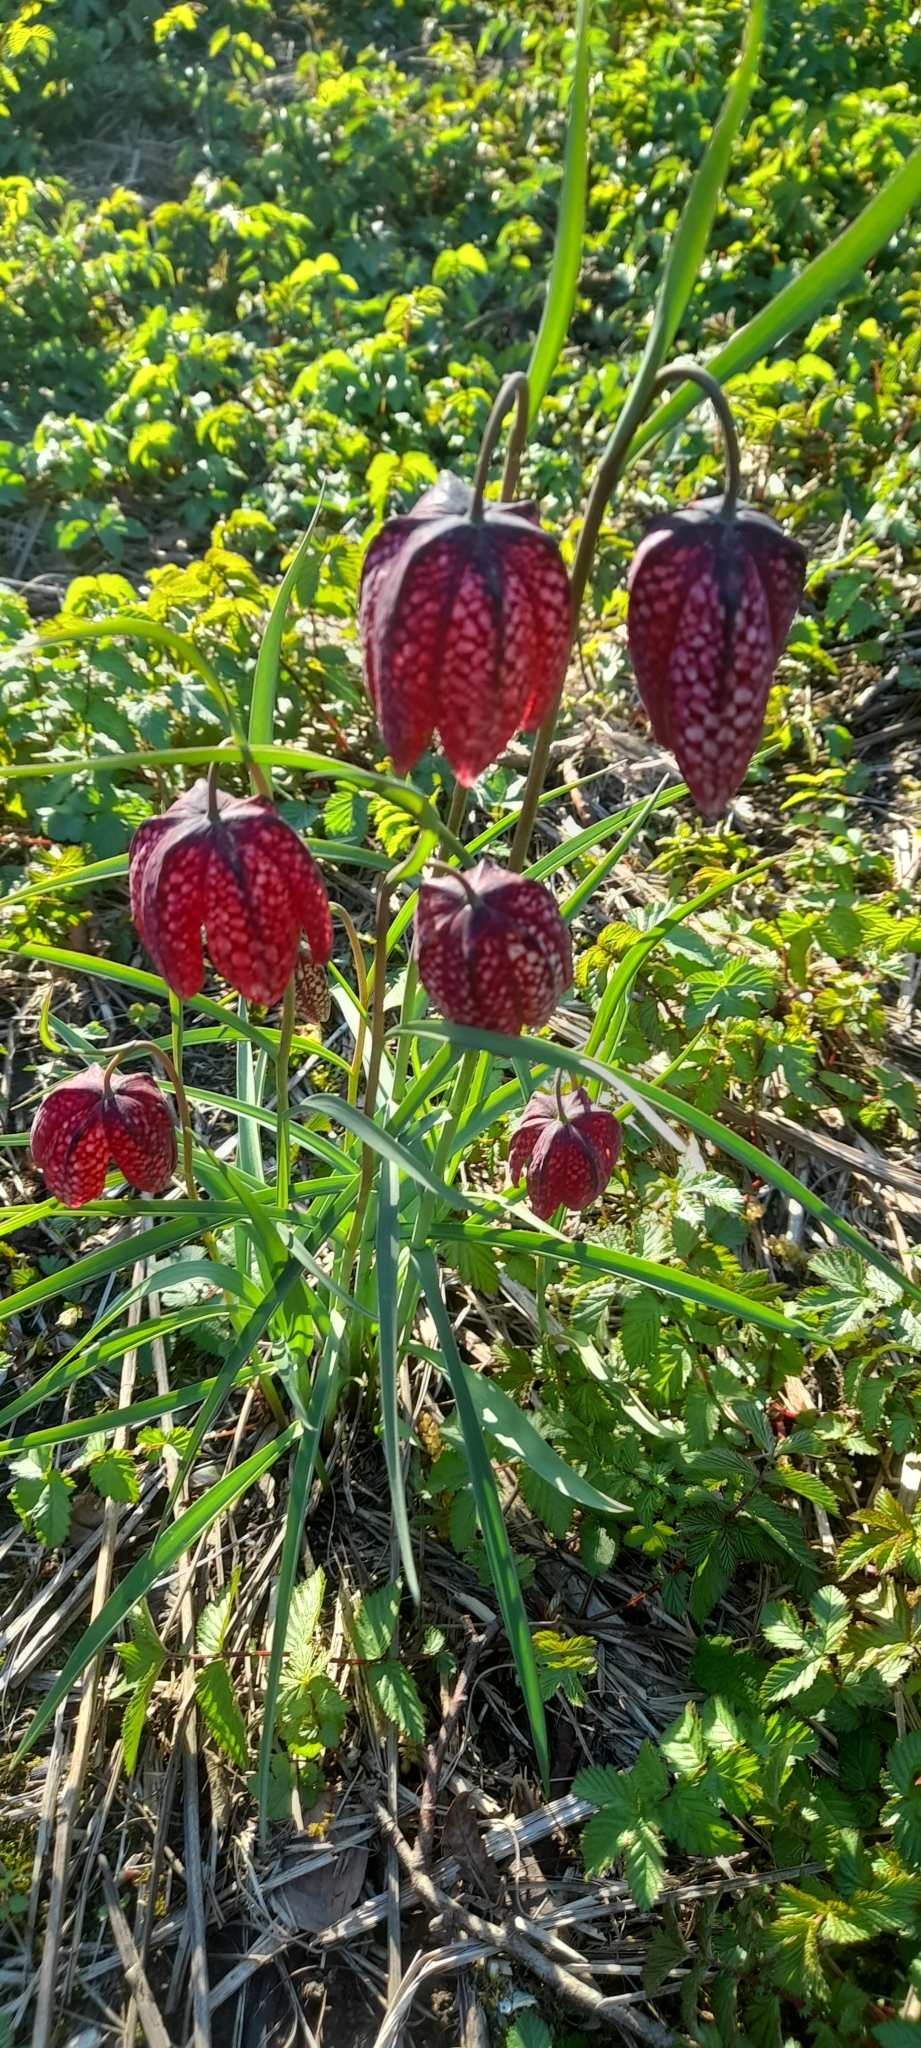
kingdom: Plantae
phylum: Tracheophyta
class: Liliopsida
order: Liliales
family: Liliaceae
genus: Fritillaria
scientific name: Fritillaria meleagris
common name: Fritillary
